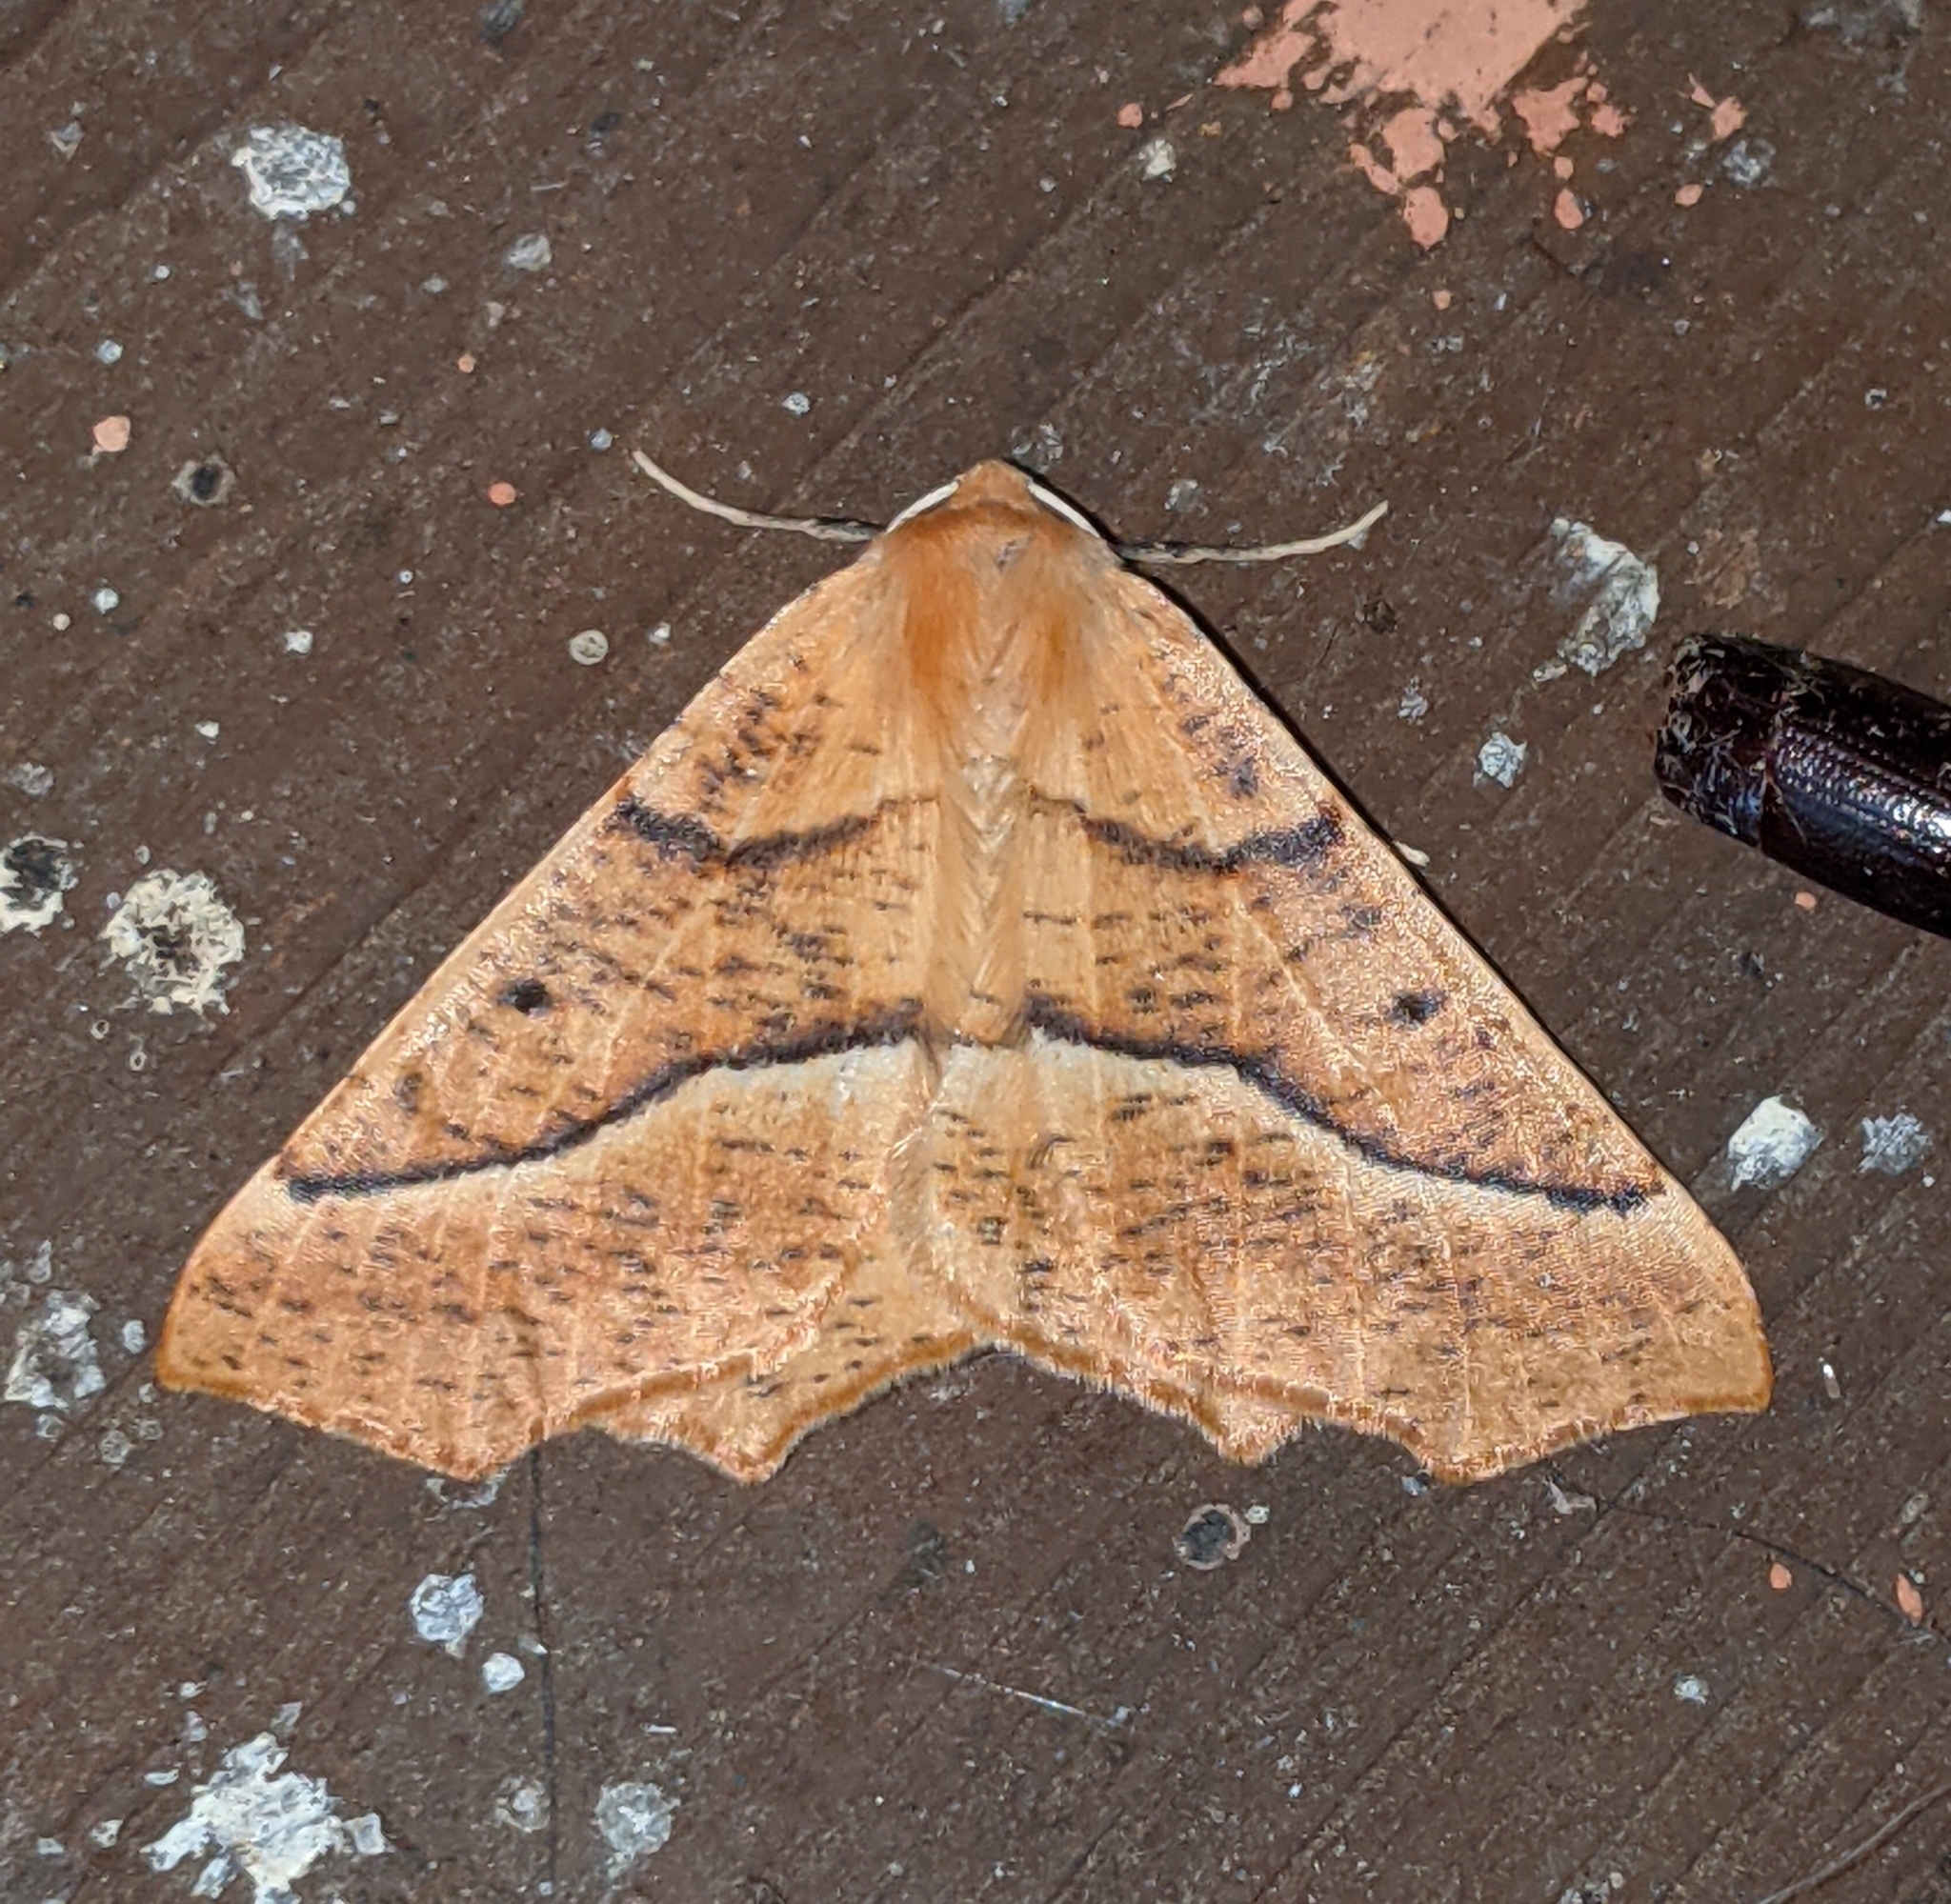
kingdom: Animalia
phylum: Arthropoda
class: Insecta
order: Lepidoptera
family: Geometridae
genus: Synaxis
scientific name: Synaxis jubararia
